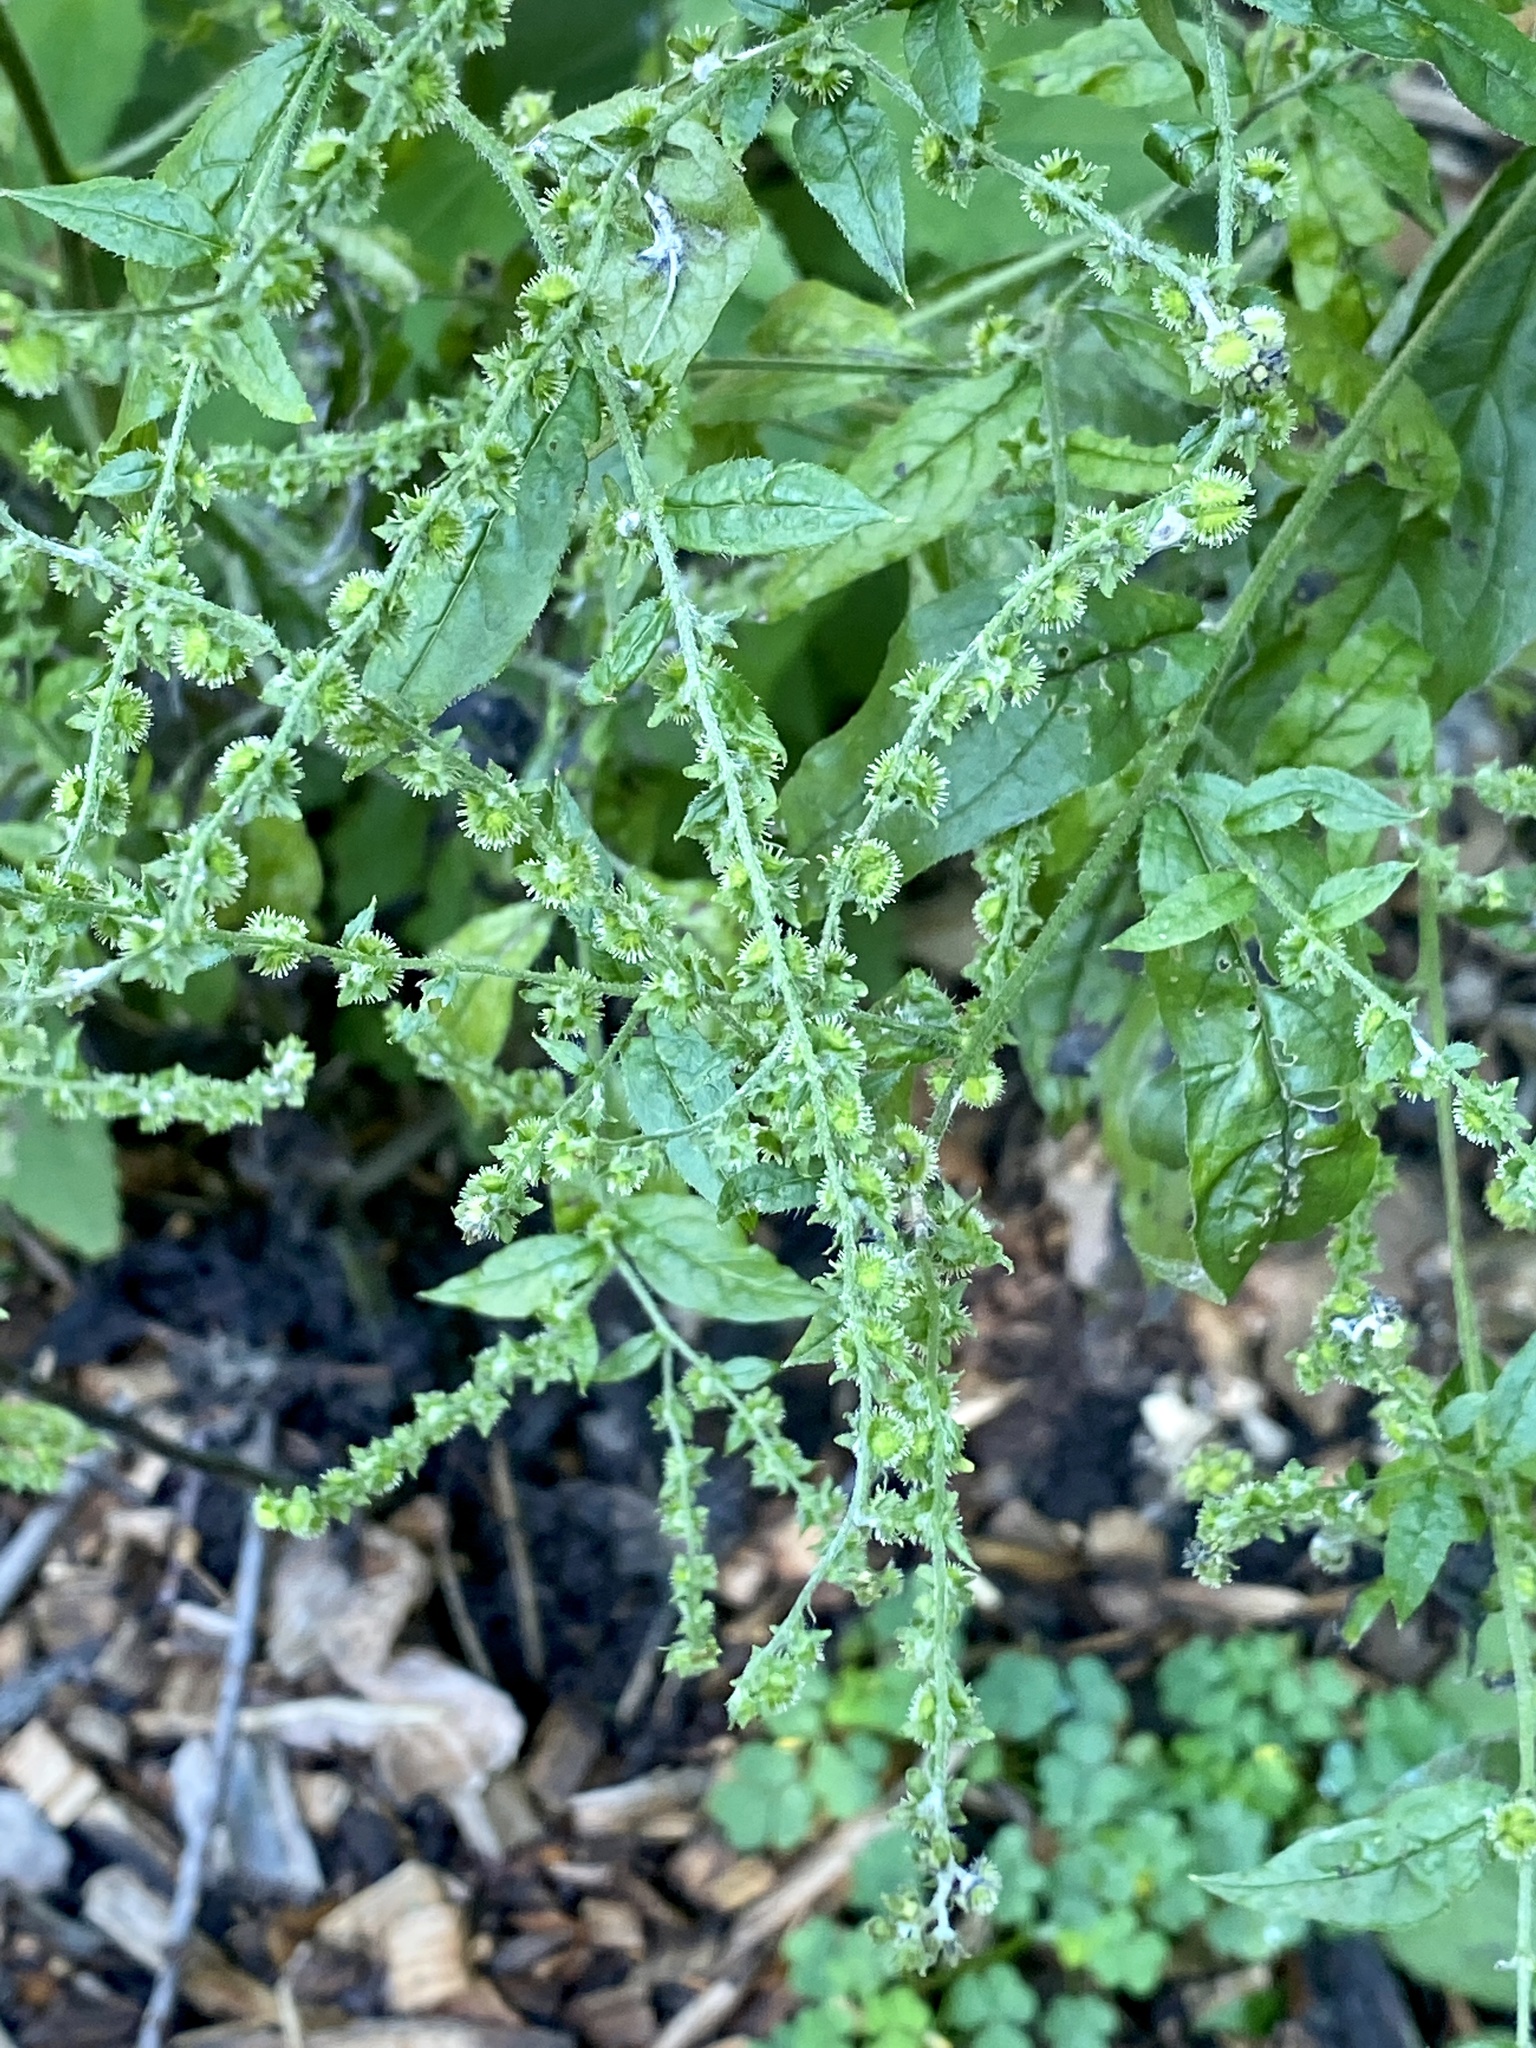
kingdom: Plantae
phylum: Tracheophyta
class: Magnoliopsida
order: Boraginales
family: Boraginaceae
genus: Hackelia
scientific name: Hackelia virginiana
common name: Beggar's-lice
